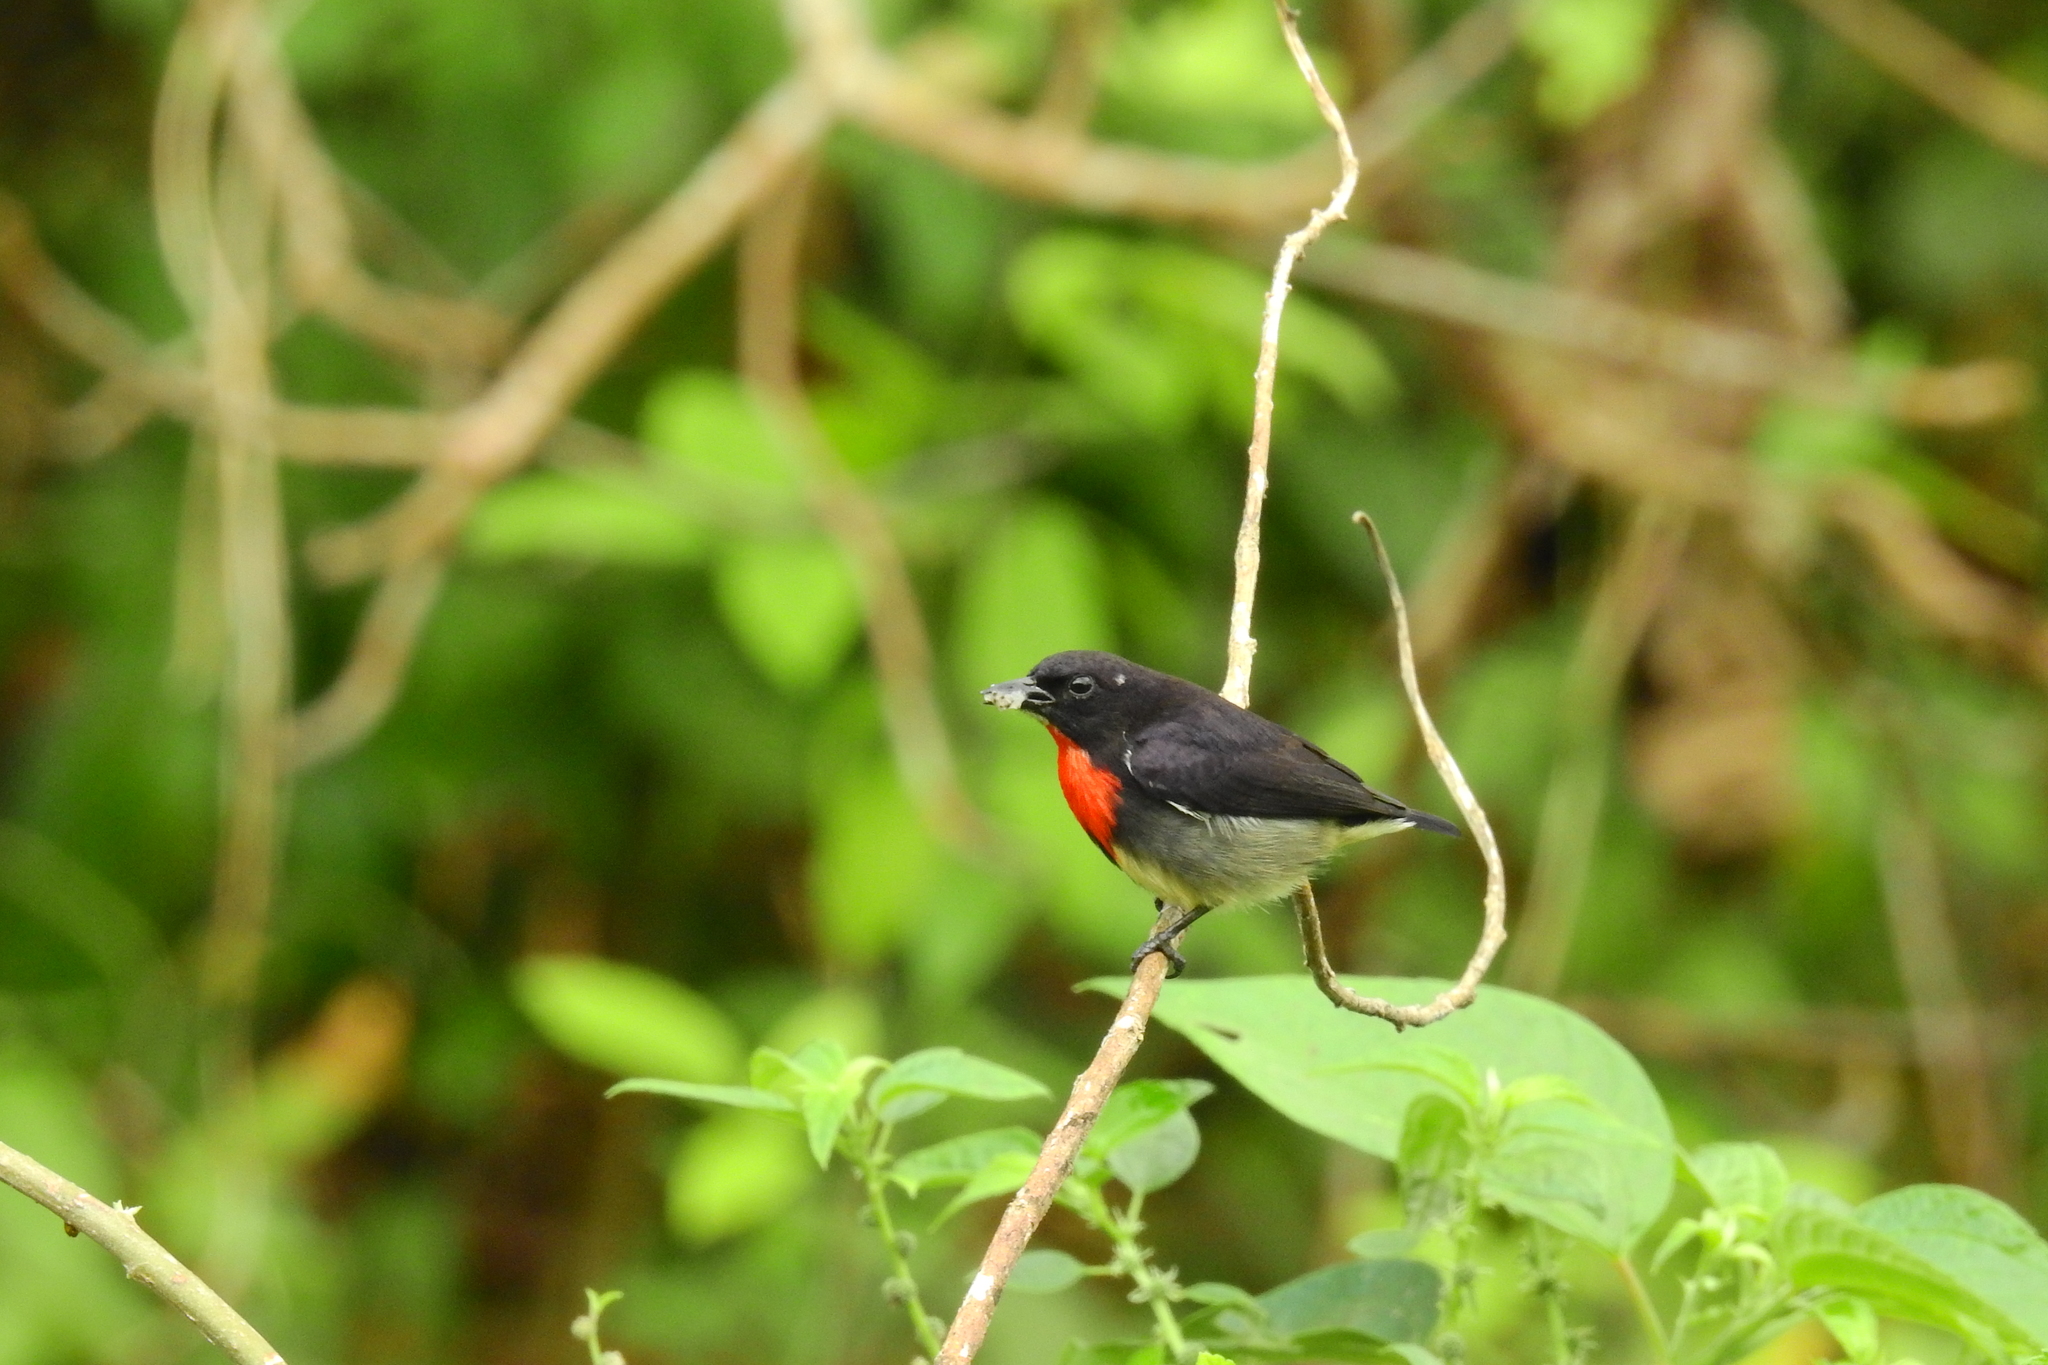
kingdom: Animalia
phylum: Chordata
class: Aves
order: Passeriformes
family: Dicaeidae
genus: Dicaeum
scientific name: Dicaeum celebicum
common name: Grey-sided flowerpecker
